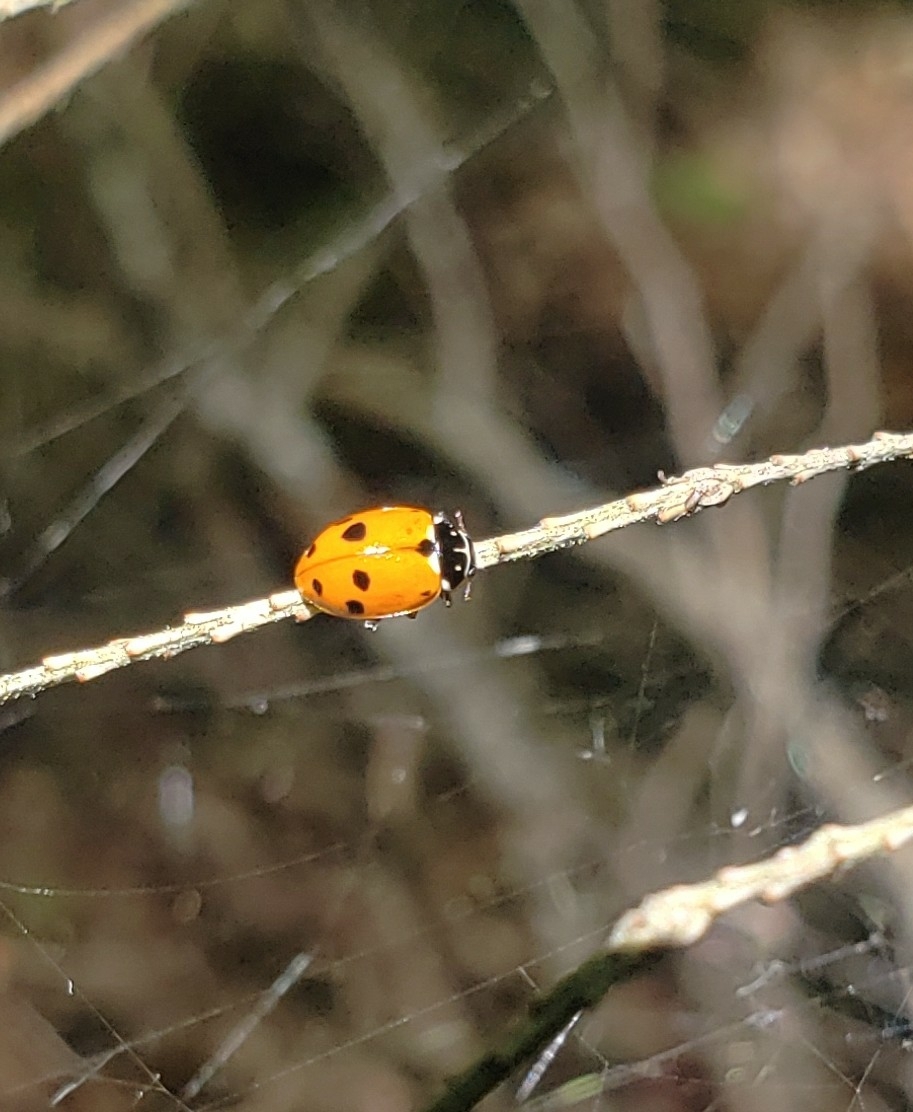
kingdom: Animalia
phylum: Arthropoda
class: Insecta
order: Coleoptera
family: Coccinellidae
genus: Hippodamia
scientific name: Hippodamia variegata
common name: Ladybird beetle
